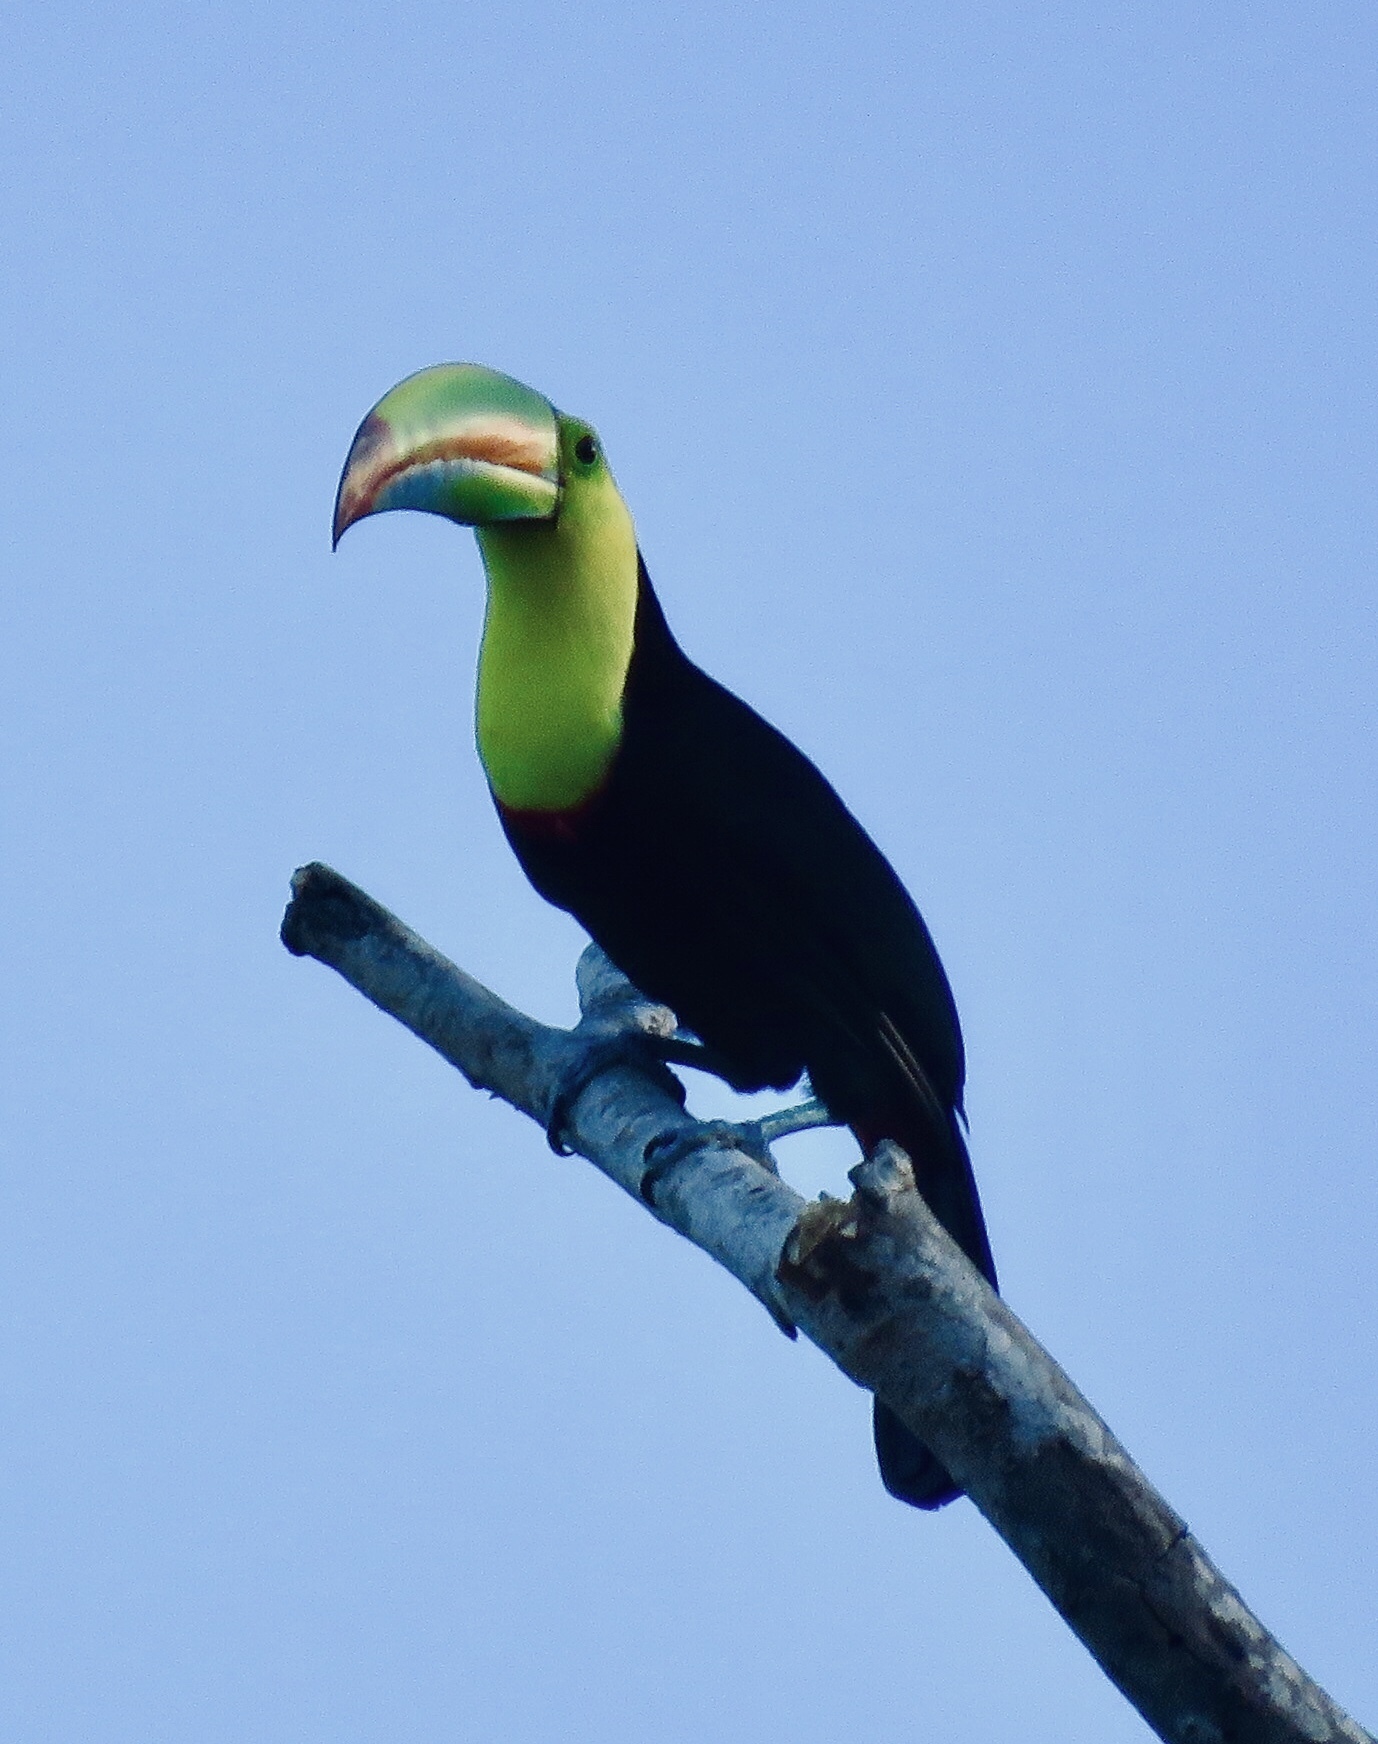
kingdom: Animalia
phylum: Chordata
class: Aves
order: Piciformes
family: Ramphastidae
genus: Ramphastos
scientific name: Ramphastos sulfuratus
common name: Keel-billed toucan
